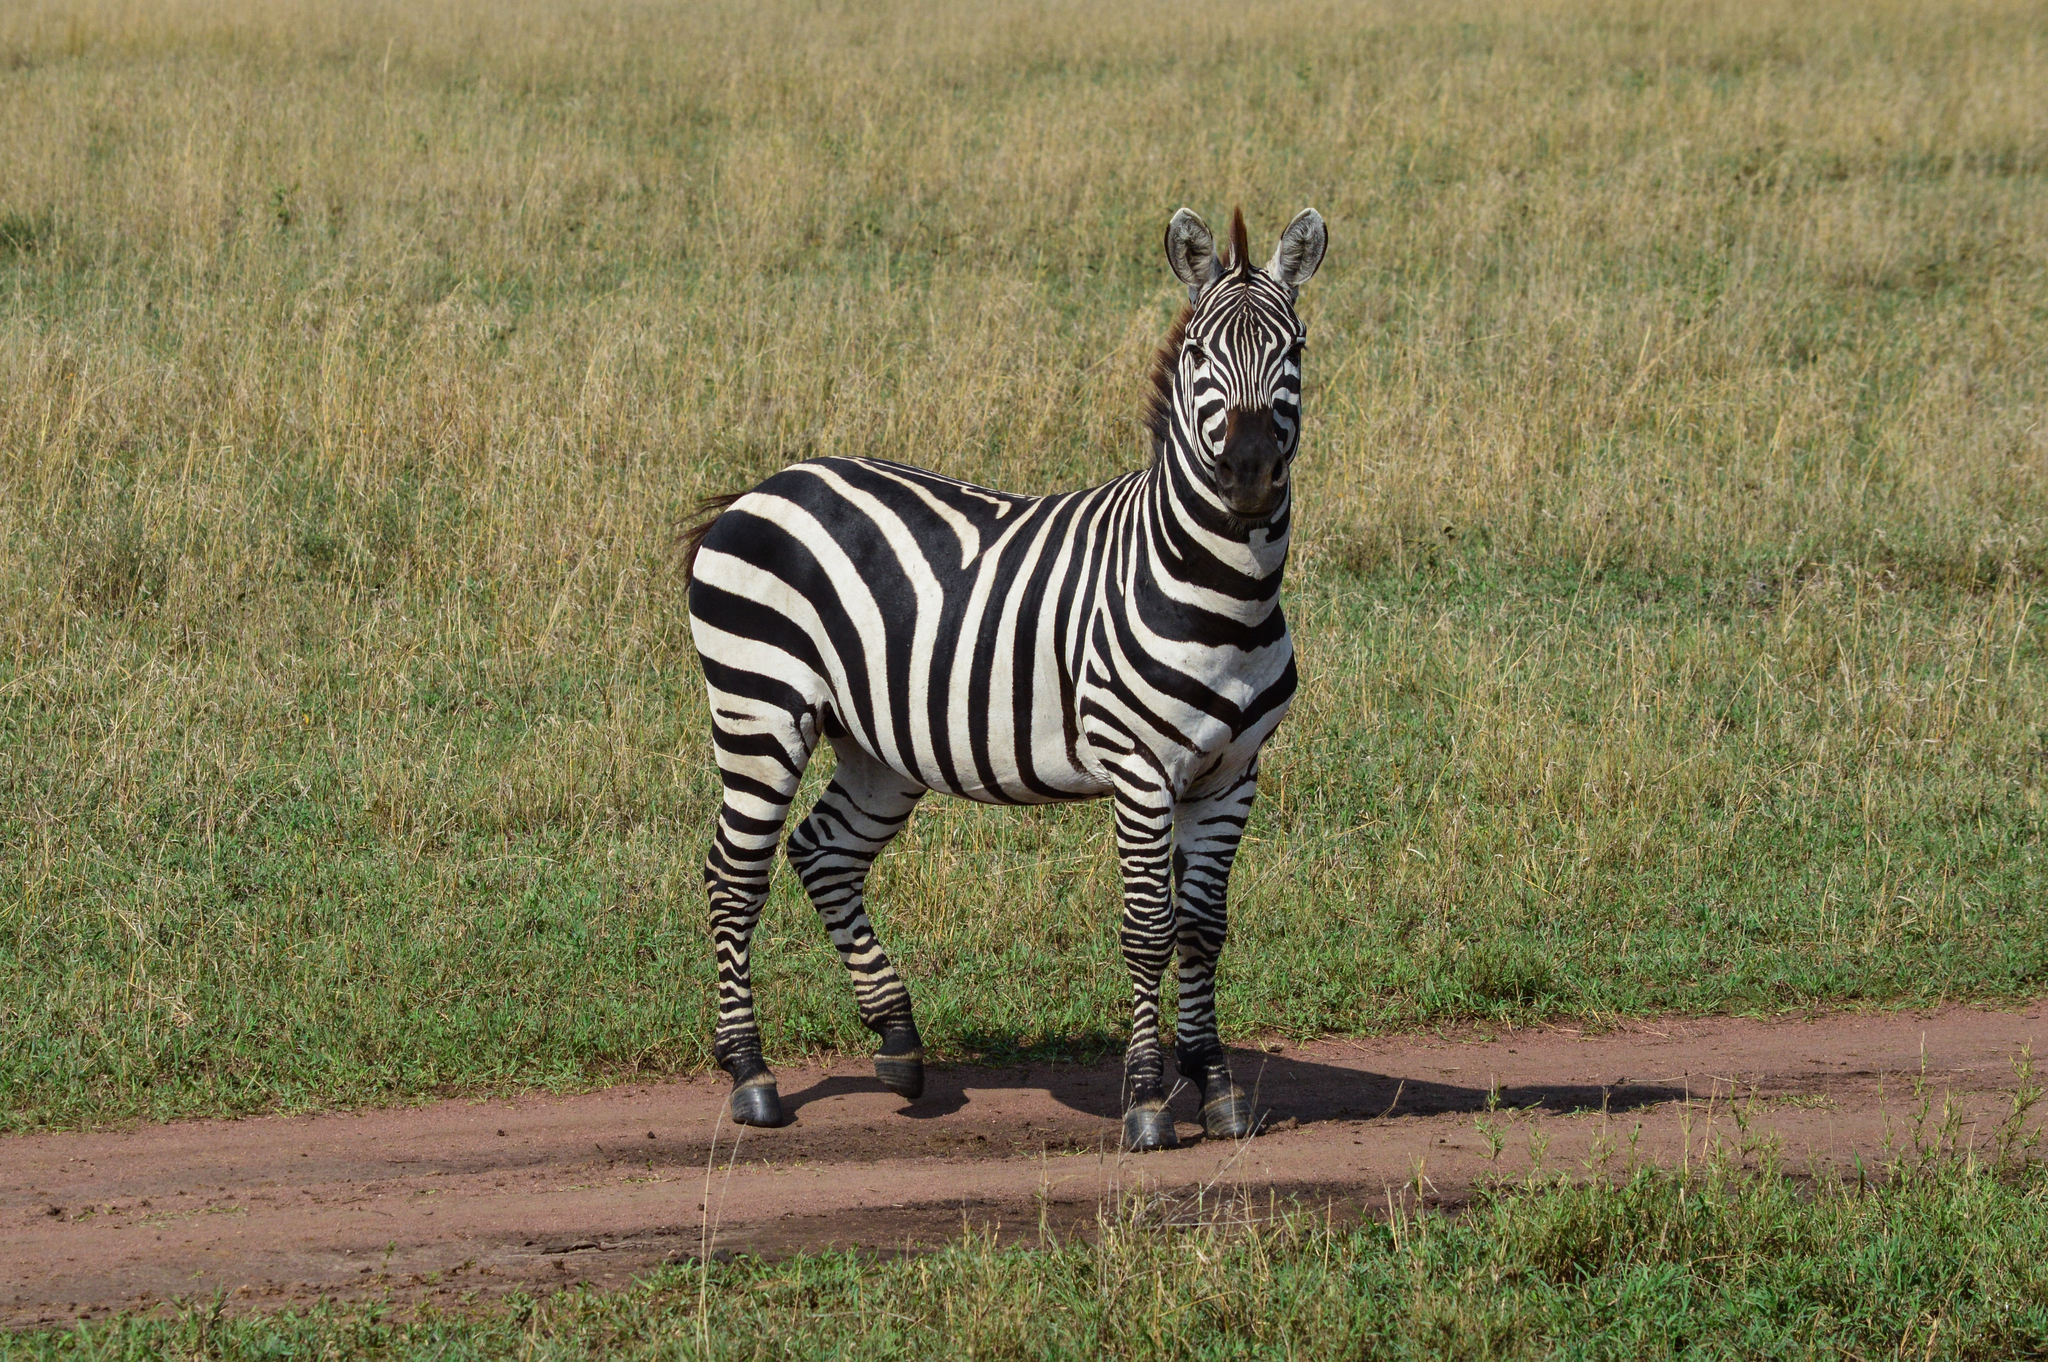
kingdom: Animalia
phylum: Chordata
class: Mammalia
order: Perissodactyla
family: Equidae
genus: Equus
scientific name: Equus quagga
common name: Plains zebra
